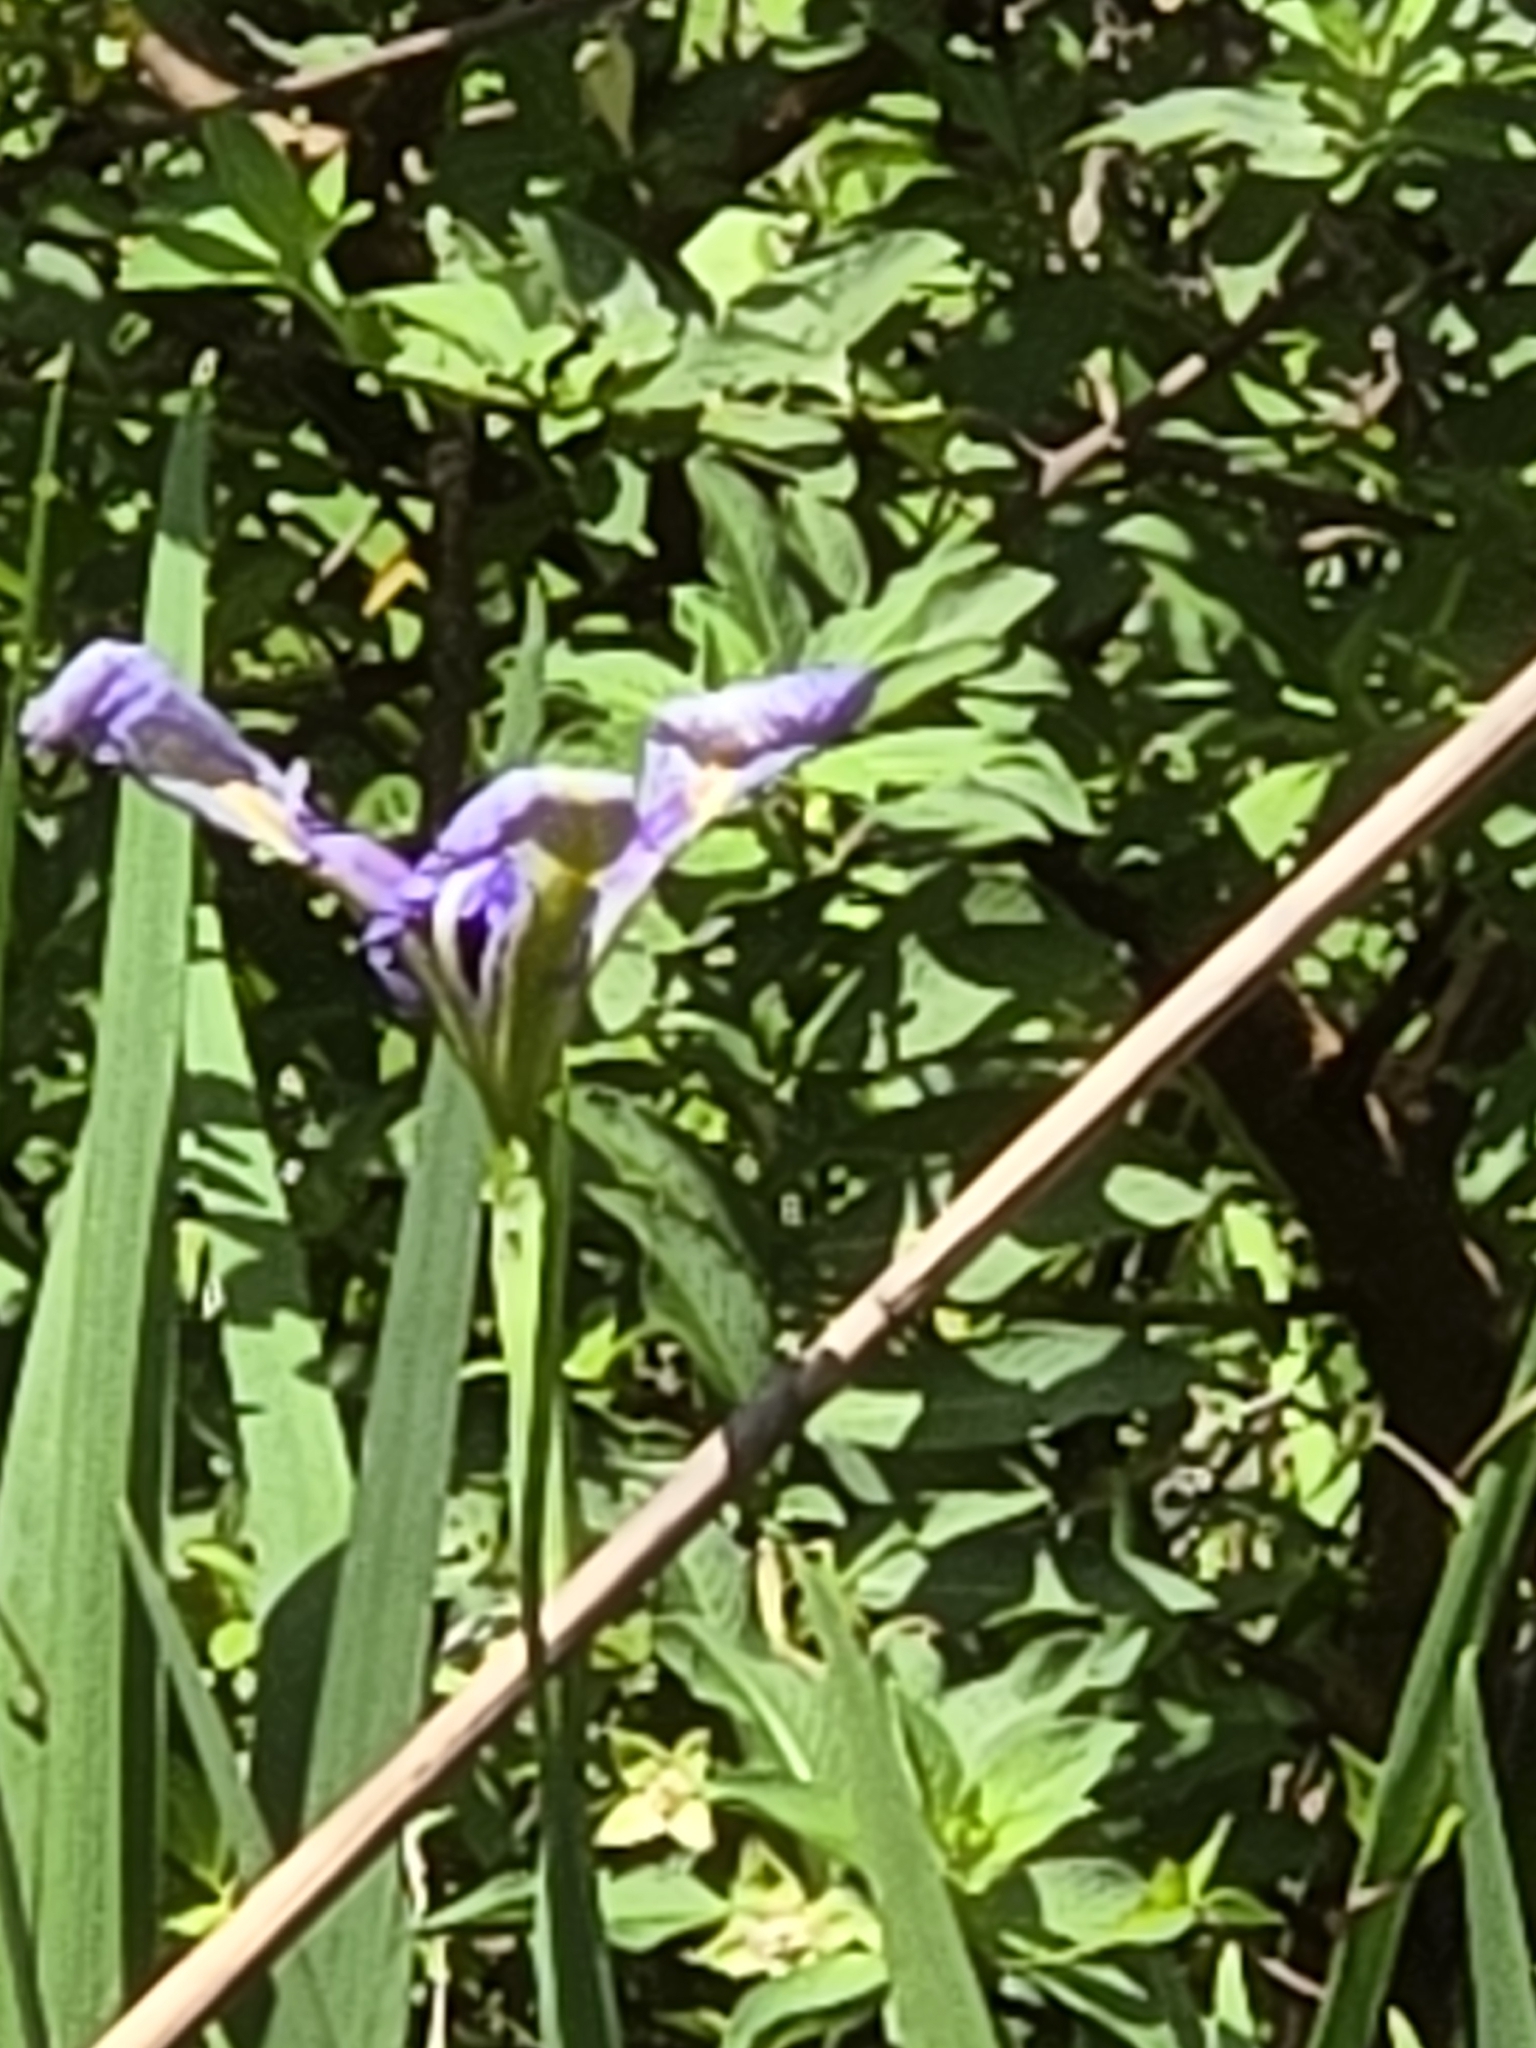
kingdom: Plantae
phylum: Tracheophyta
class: Liliopsida
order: Asparagales
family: Iridaceae
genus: Iris
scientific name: Iris savannarum
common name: Prairie iris
